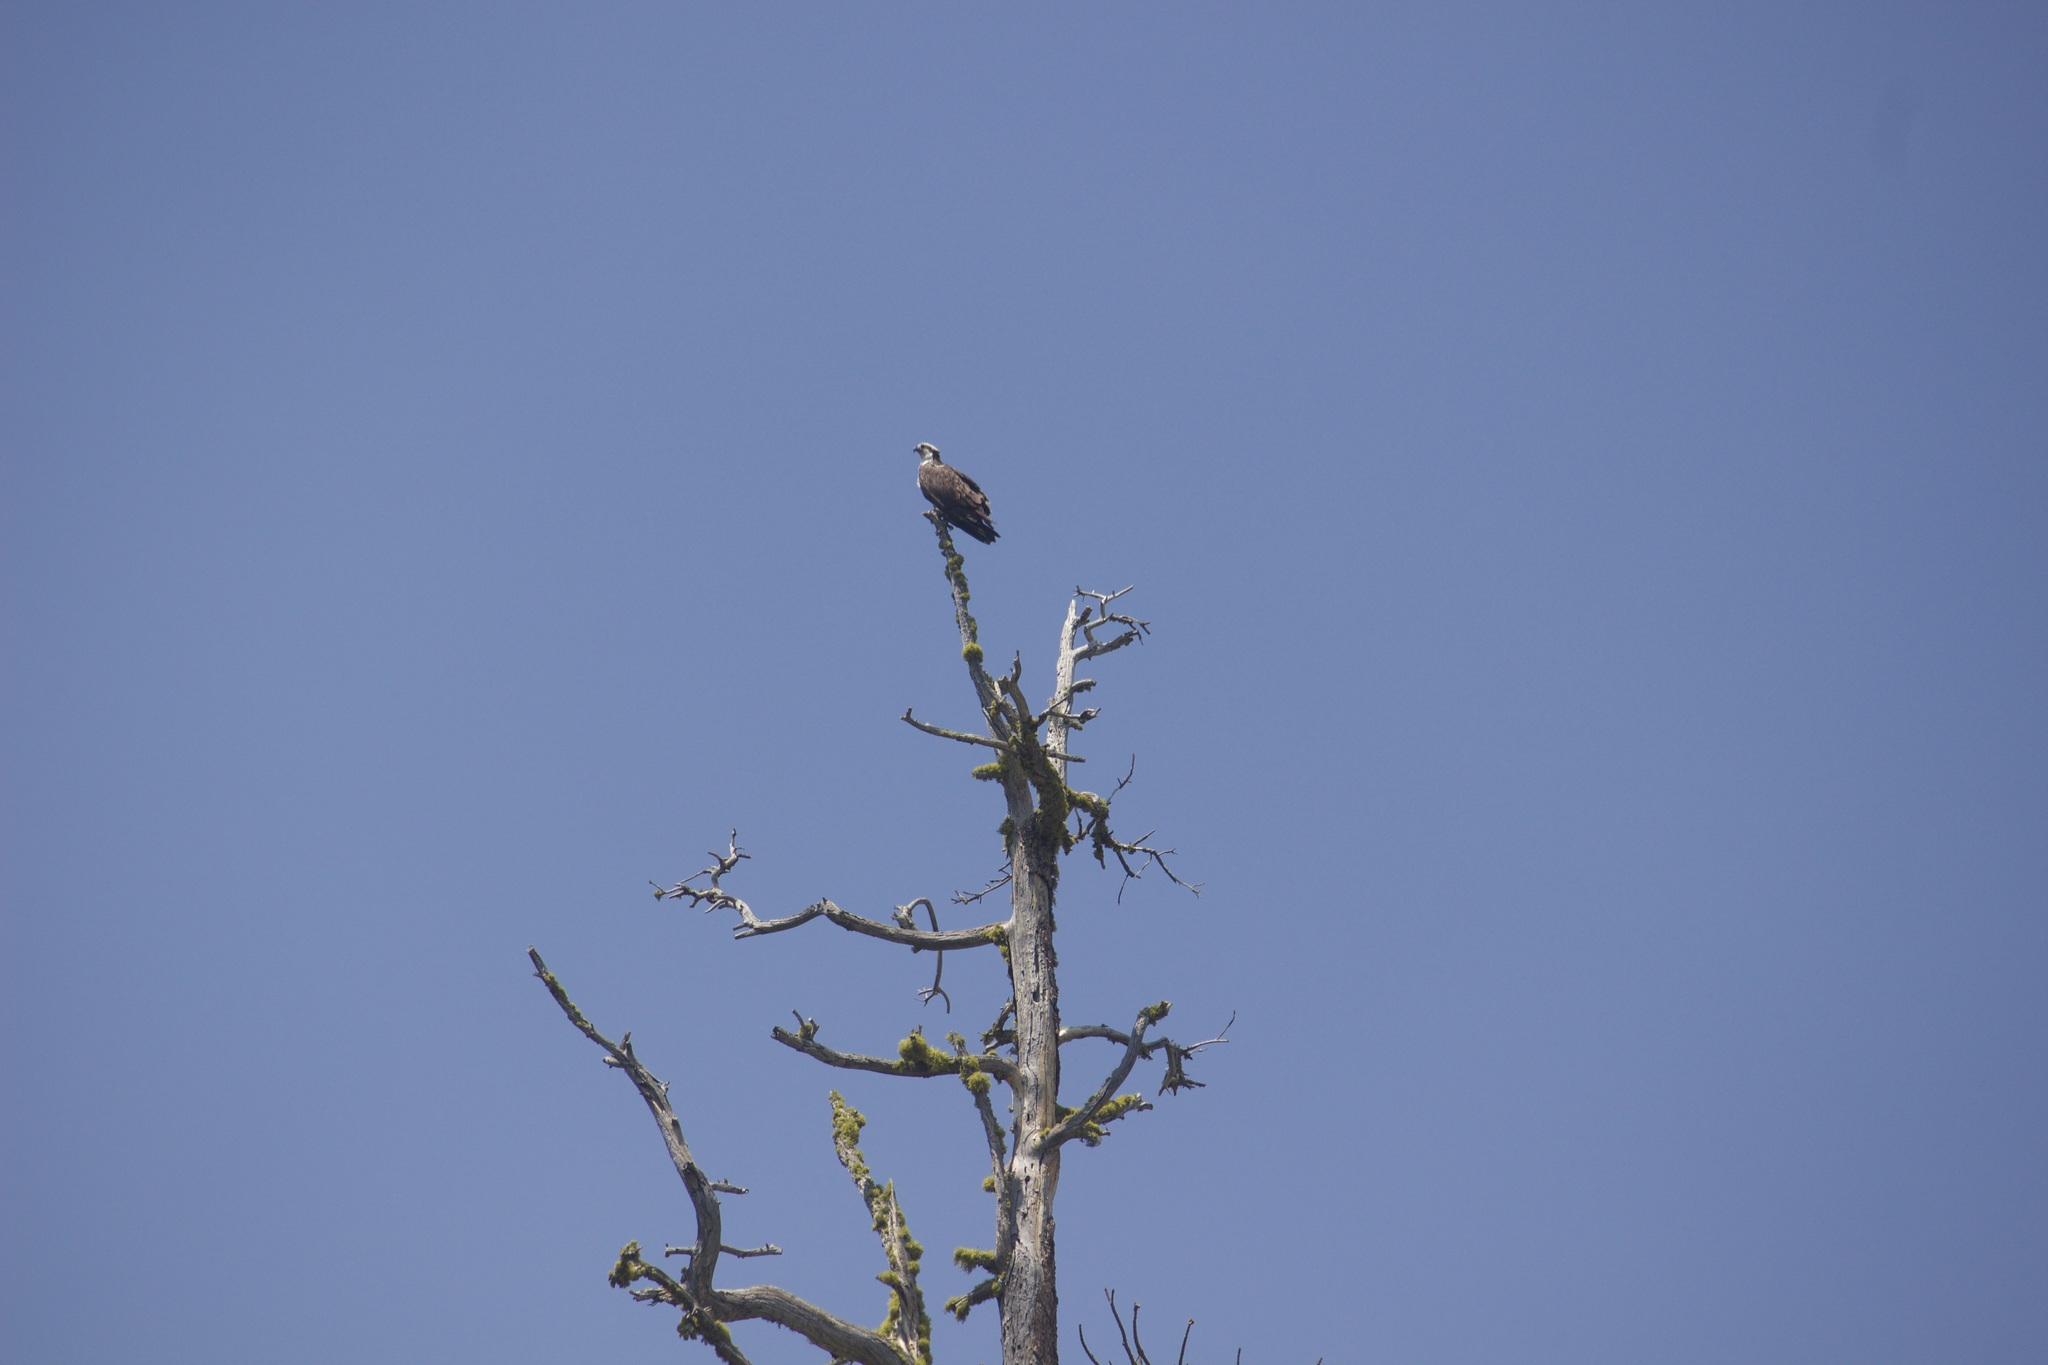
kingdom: Animalia
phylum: Chordata
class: Aves
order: Accipitriformes
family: Pandionidae
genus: Pandion
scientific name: Pandion haliaetus
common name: Osprey
